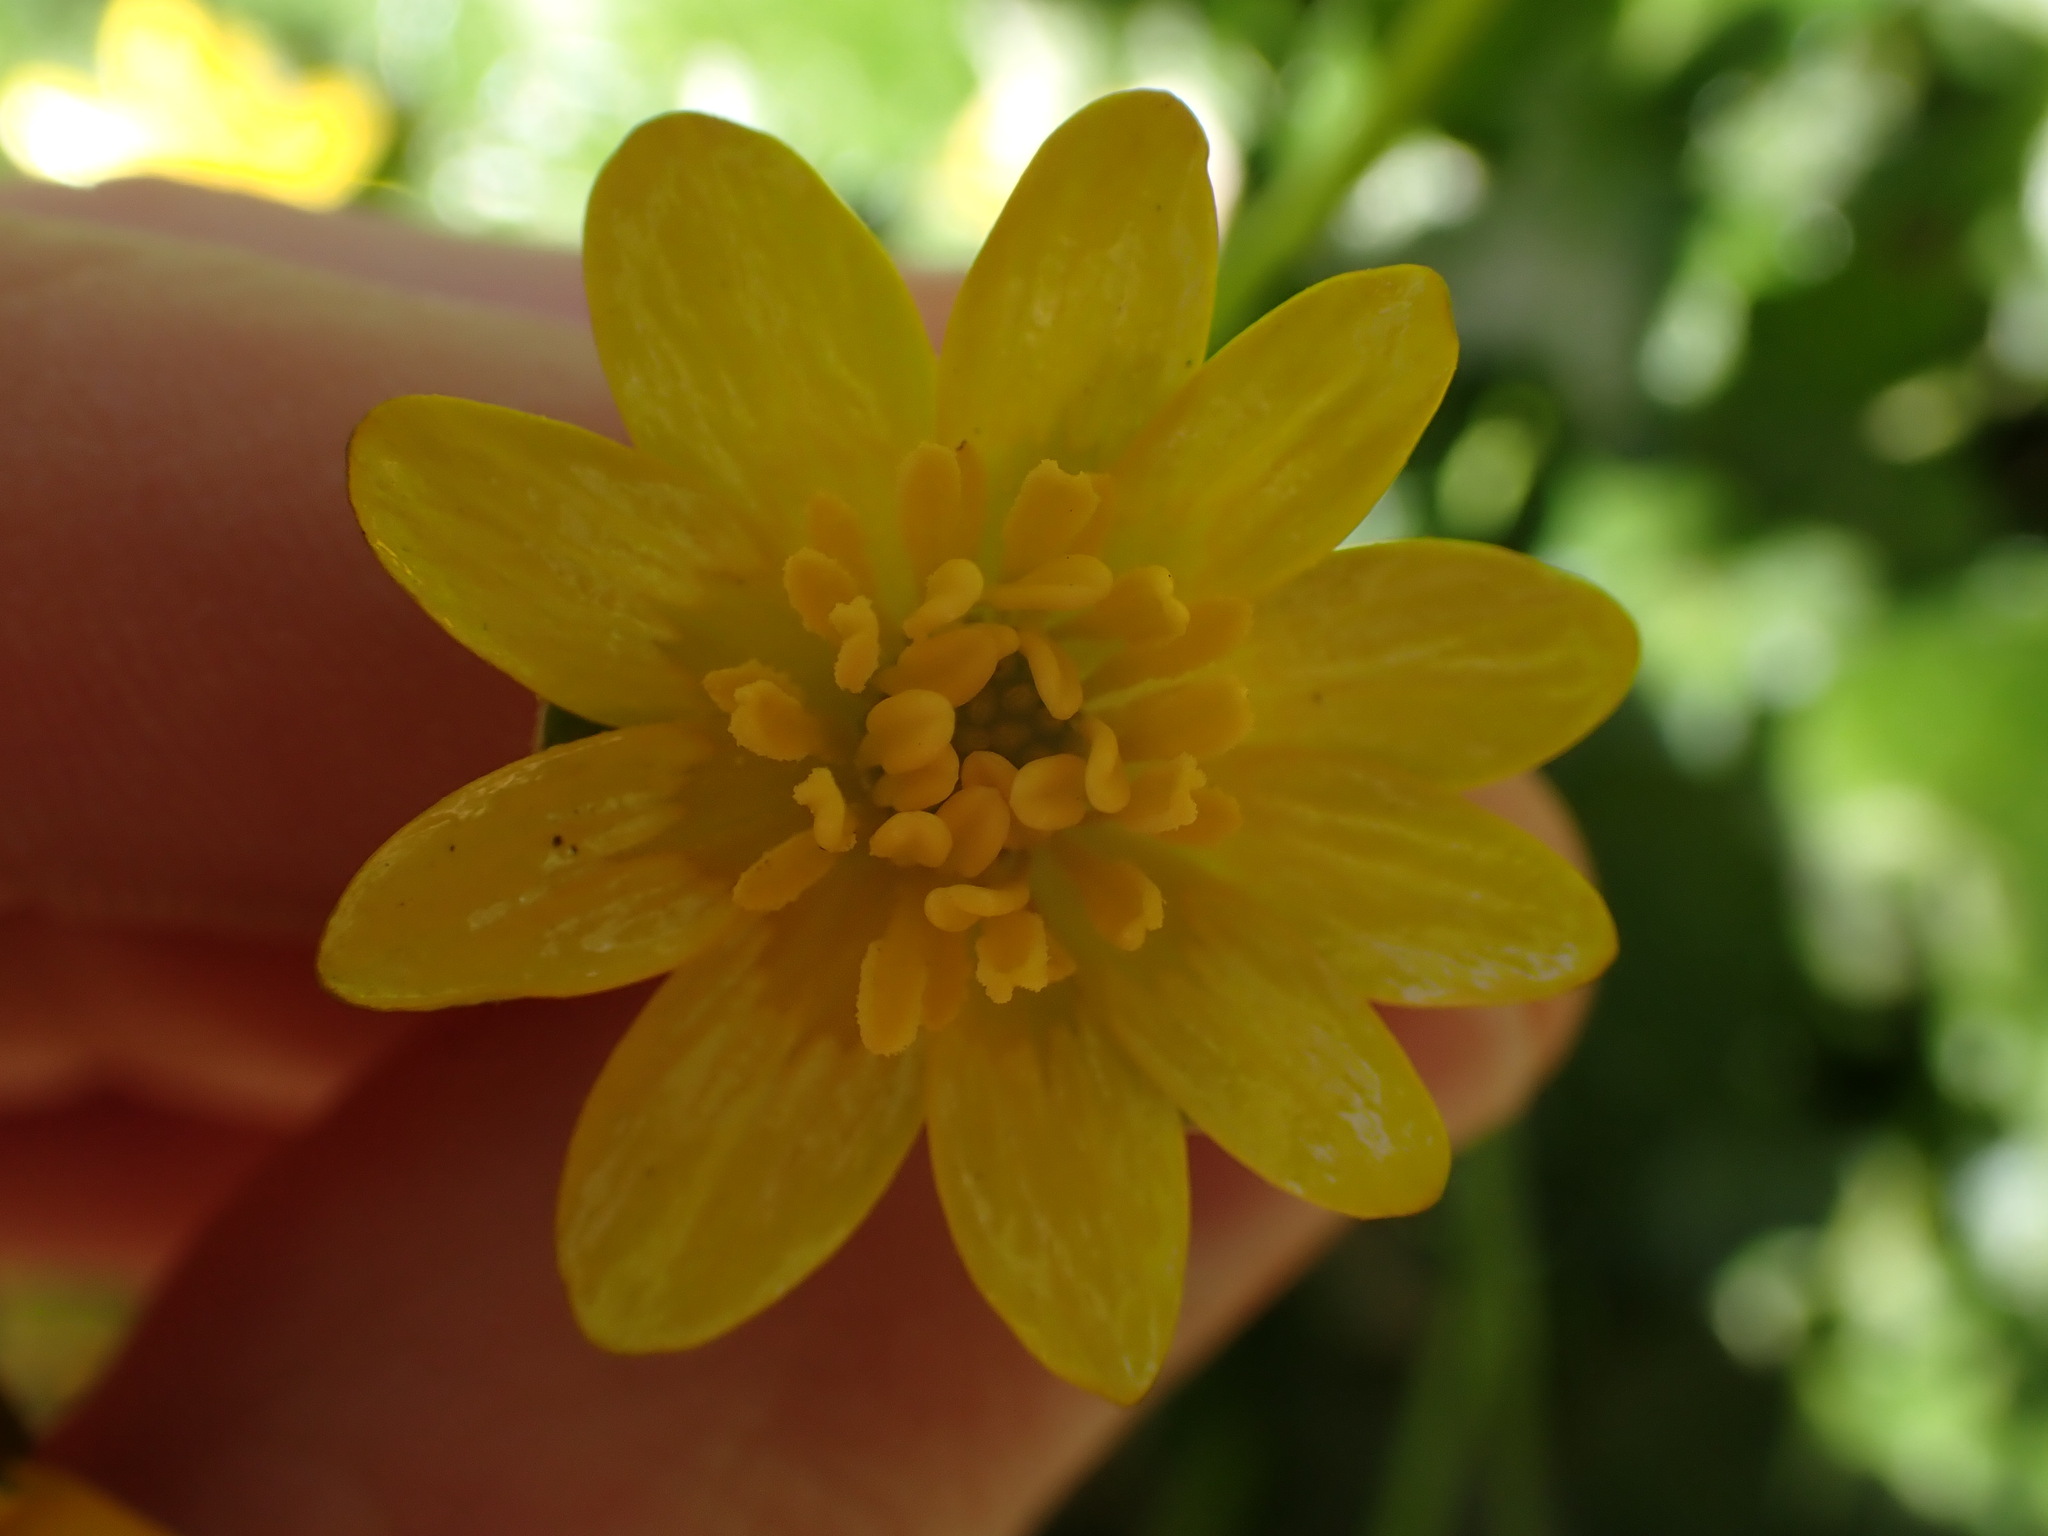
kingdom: Plantae
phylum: Tracheophyta
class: Magnoliopsida
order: Ranunculales
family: Ranunculaceae
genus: Ficaria
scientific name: Ficaria verna
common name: Lesser celandine
